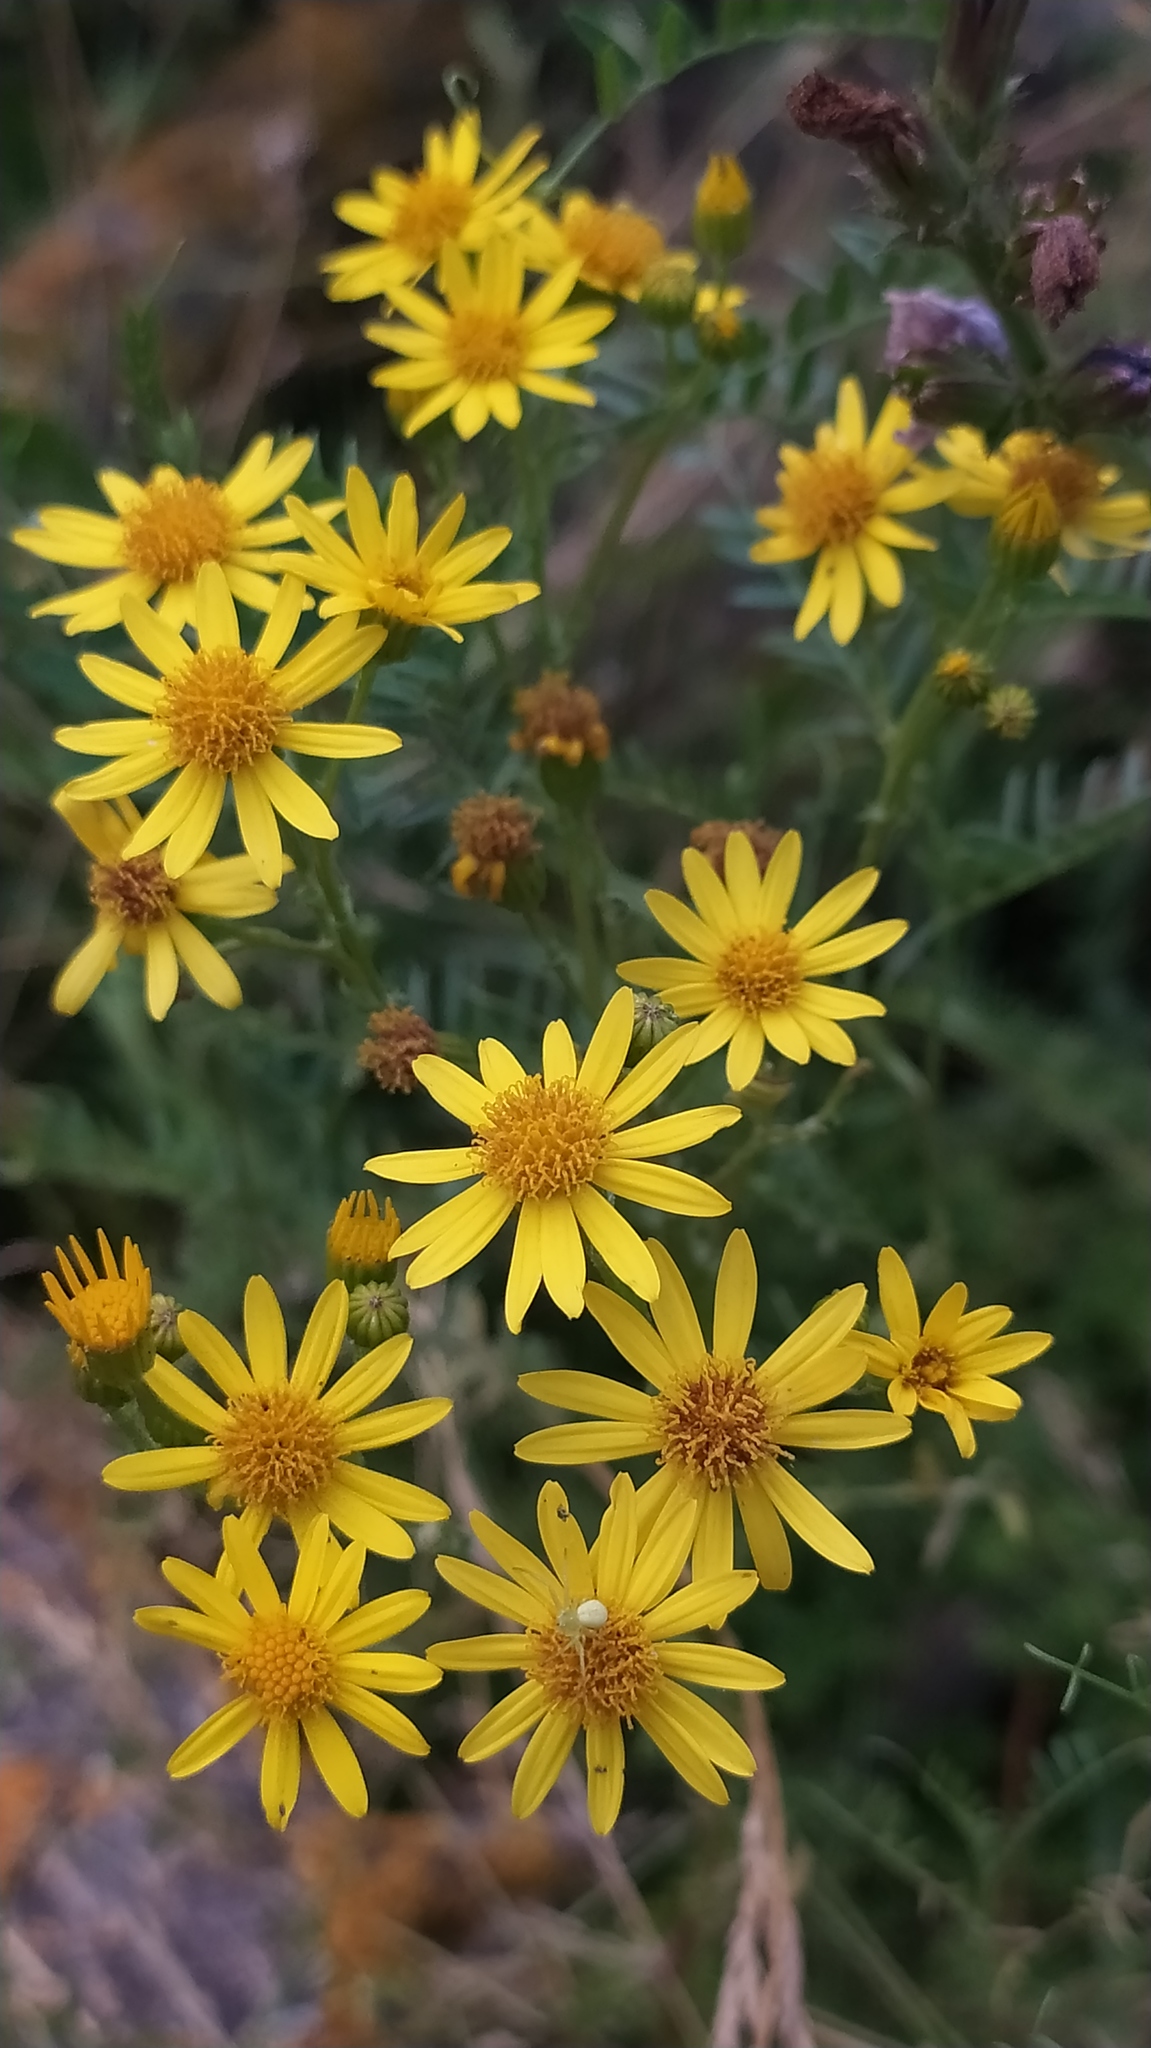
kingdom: Plantae
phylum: Tracheophyta
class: Magnoliopsida
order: Asterales
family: Asteraceae
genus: Jacobaea
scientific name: Jacobaea vulgaris
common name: Stinking willie
